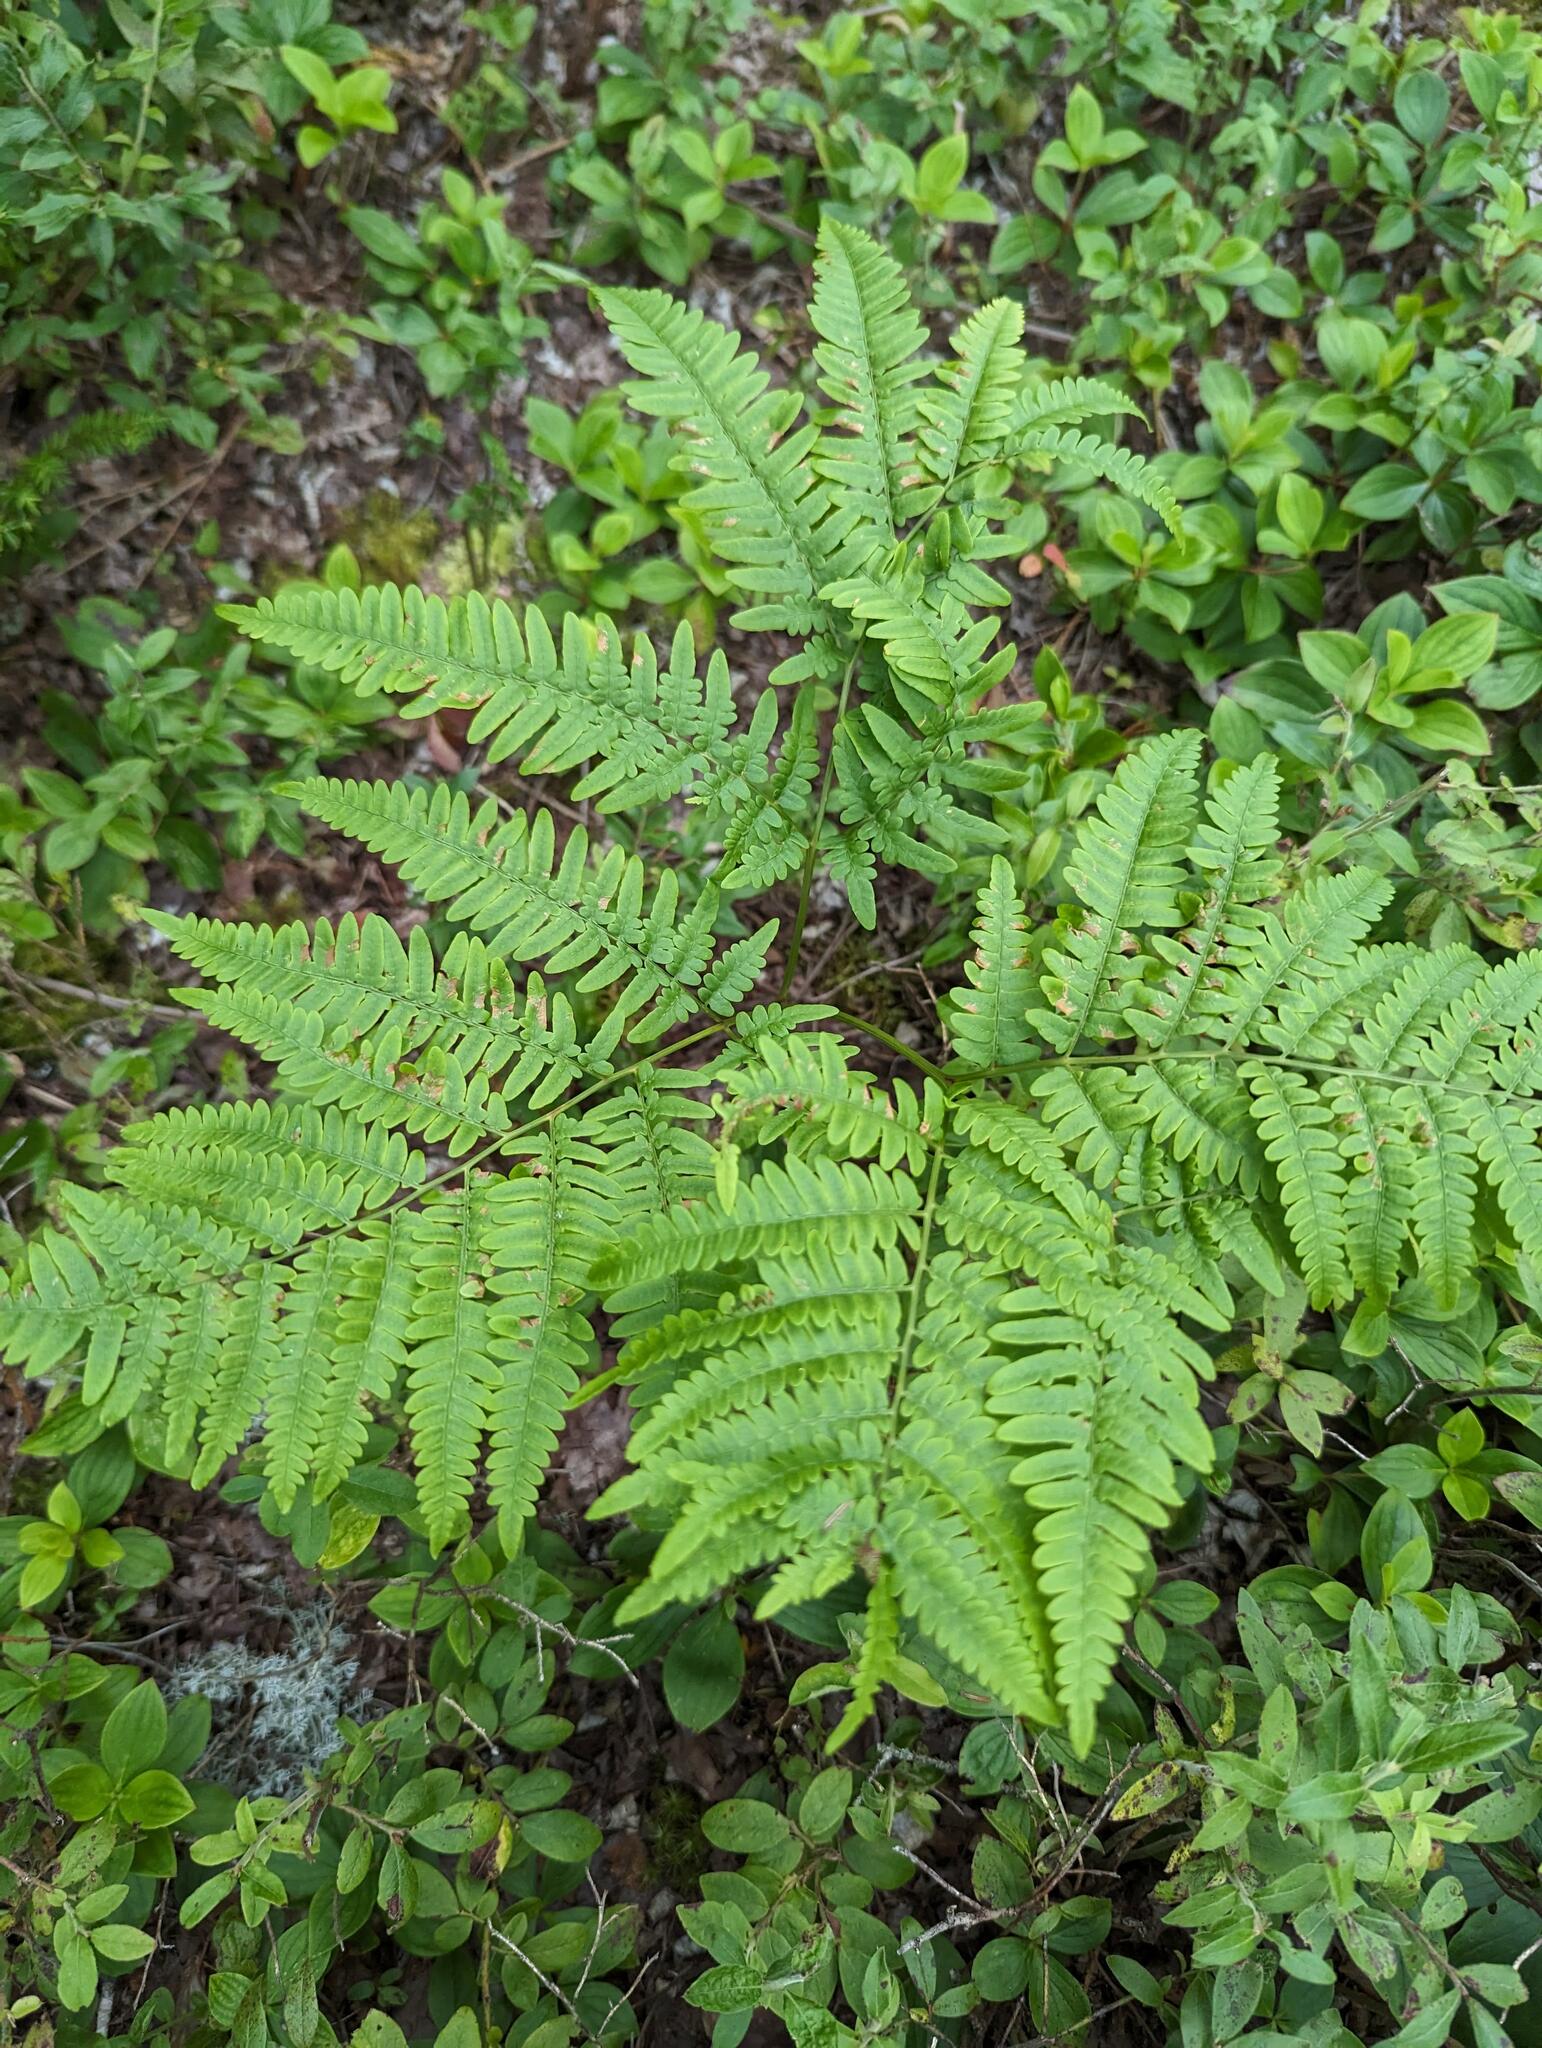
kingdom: Plantae
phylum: Tracheophyta
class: Polypodiopsida
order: Polypodiales
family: Dennstaedtiaceae
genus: Pteridium
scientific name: Pteridium aquilinum
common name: Bracken
